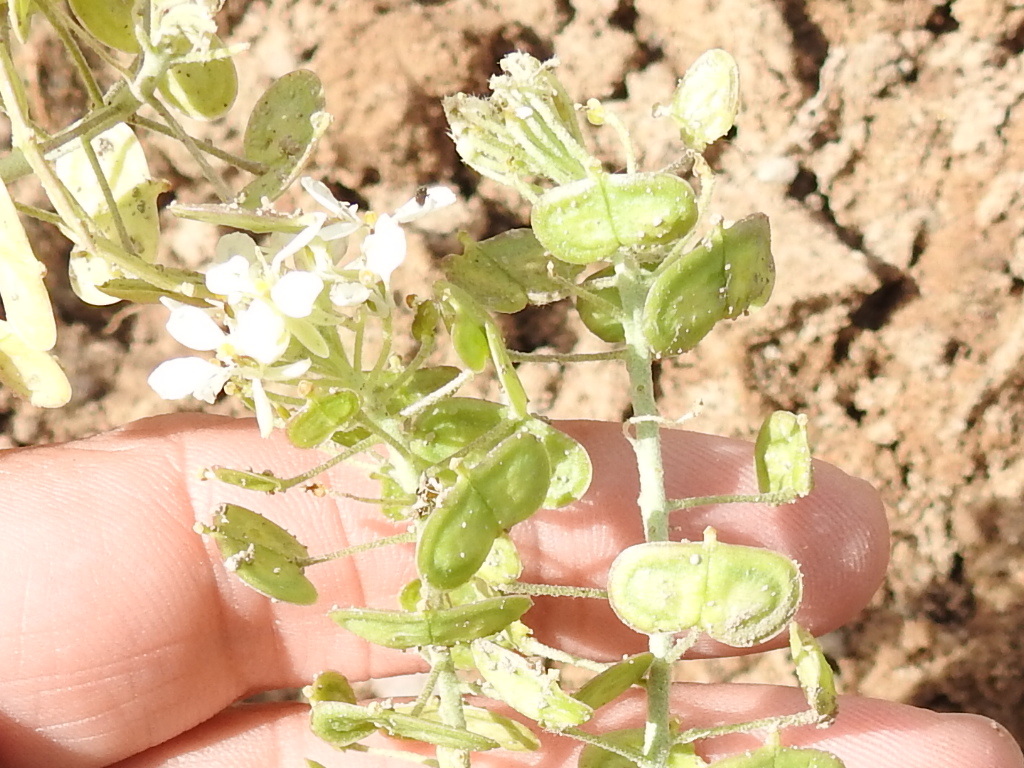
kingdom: Plantae
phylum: Tracheophyta
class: Magnoliopsida
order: Brassicales
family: Brassicaceae
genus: Dimorphocarpa
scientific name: Dimorphocarpa wislizenii
